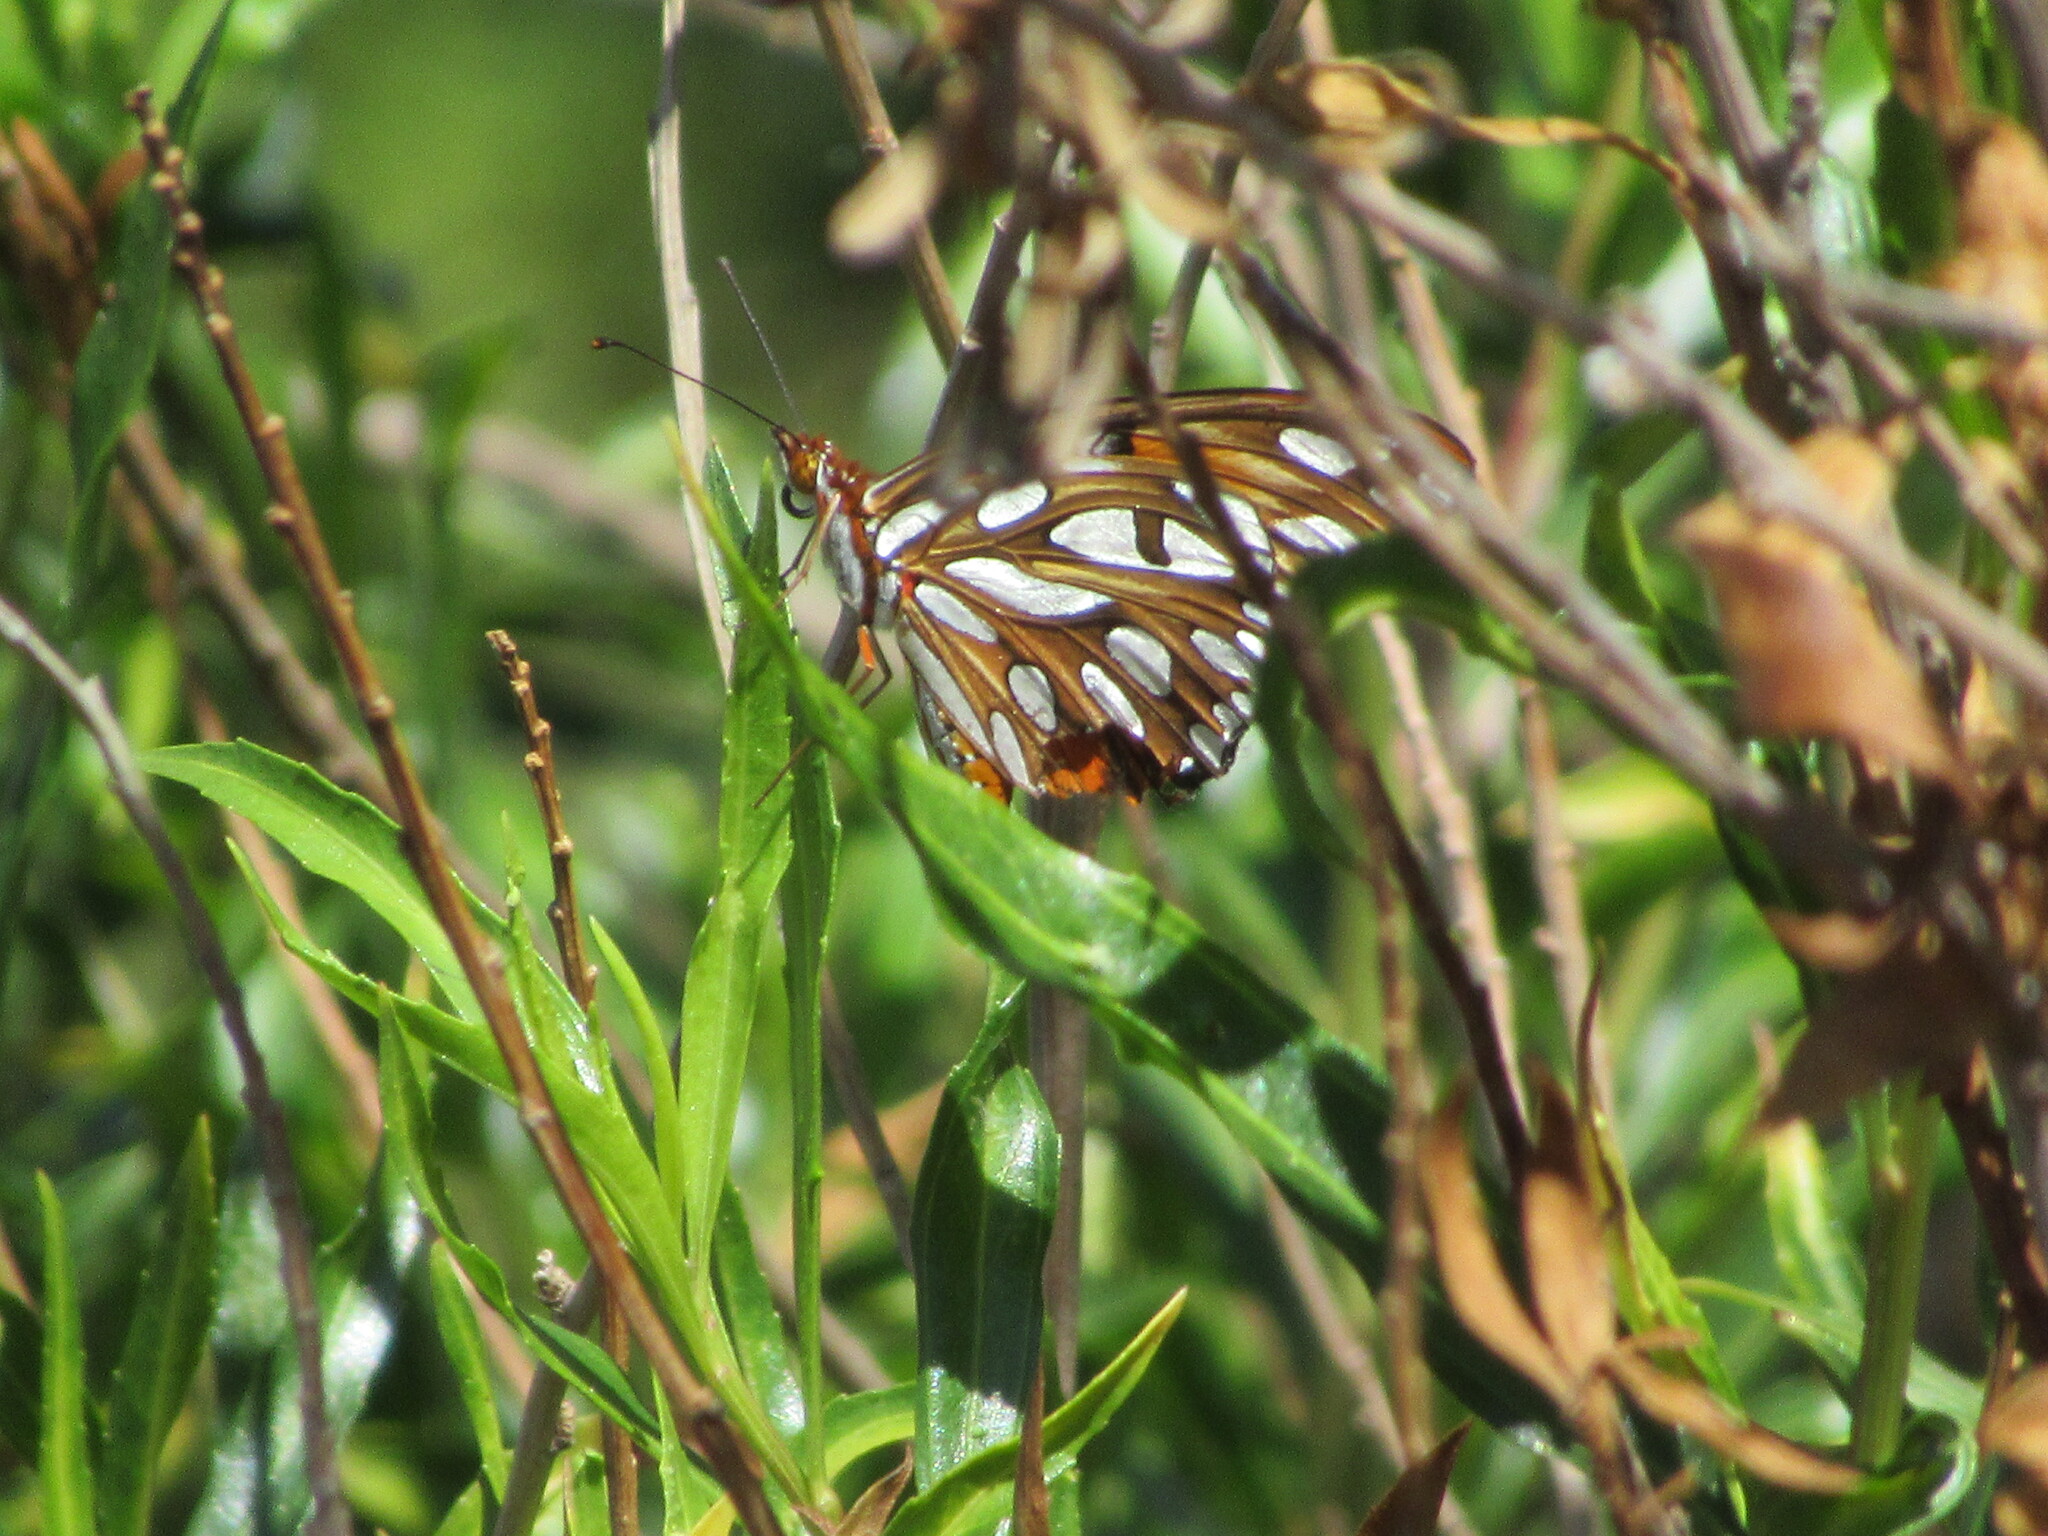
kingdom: Animalia
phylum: Arthropoda
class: Insecta
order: Lepidoptera
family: Nymphalidae
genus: Dione
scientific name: Dione vanillae
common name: Gulf fritillary
